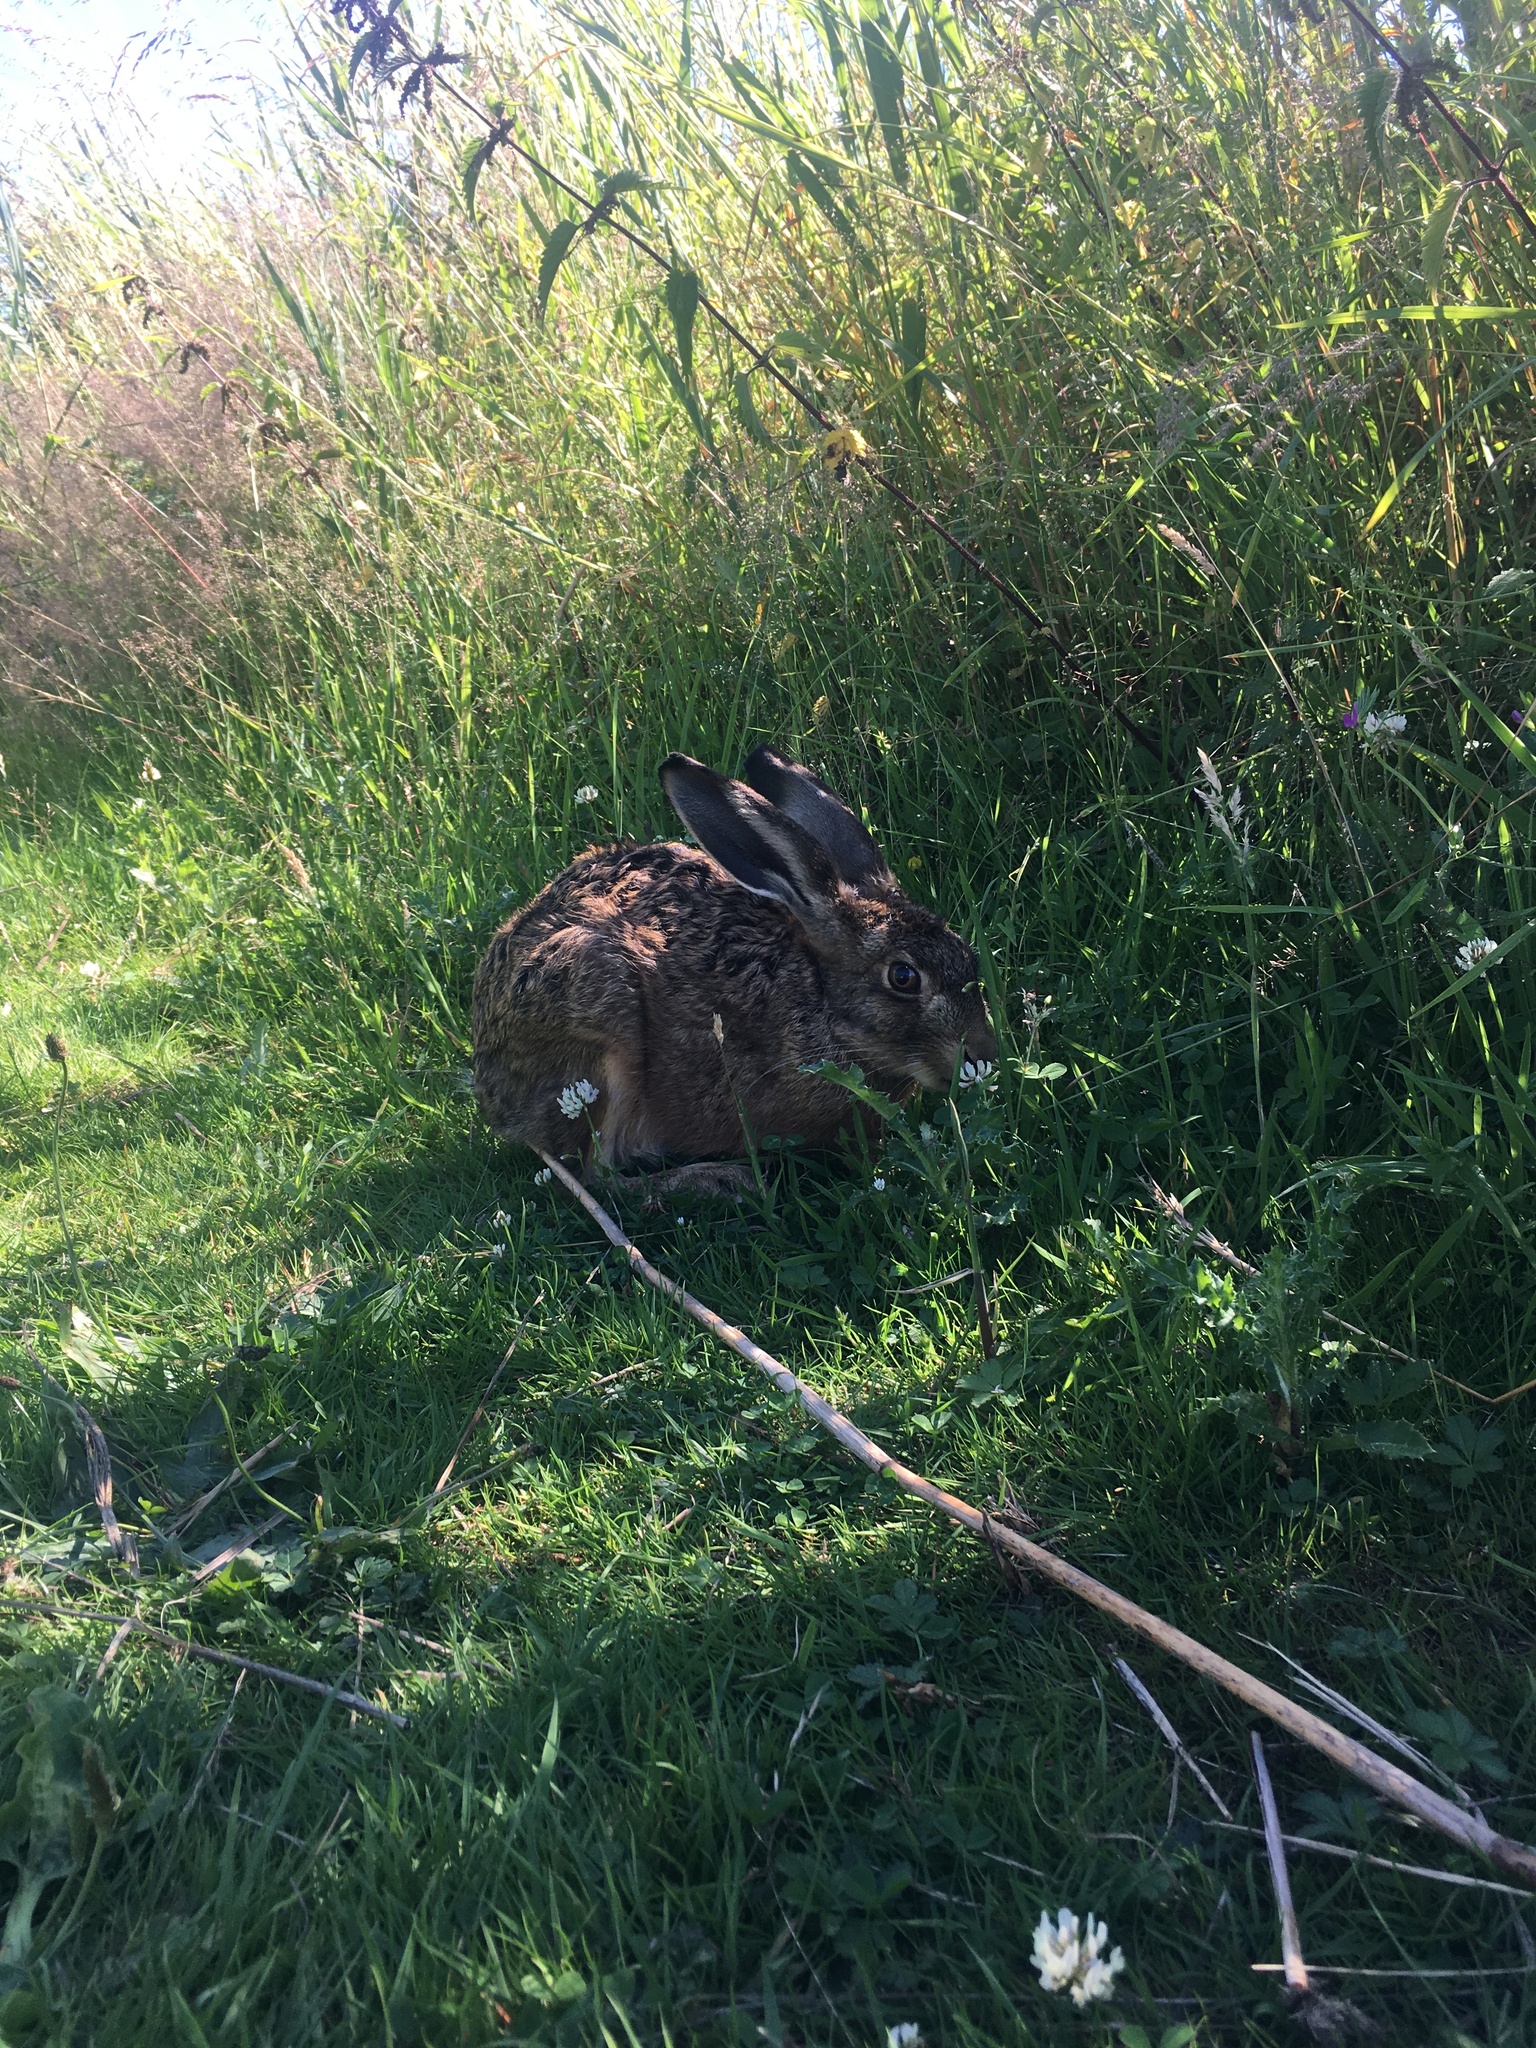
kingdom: Animalia
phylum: Chordata
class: Mammalia
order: Lagomorpha
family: Leporidae
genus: Lepus
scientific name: Lepus europaeus
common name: European hare
